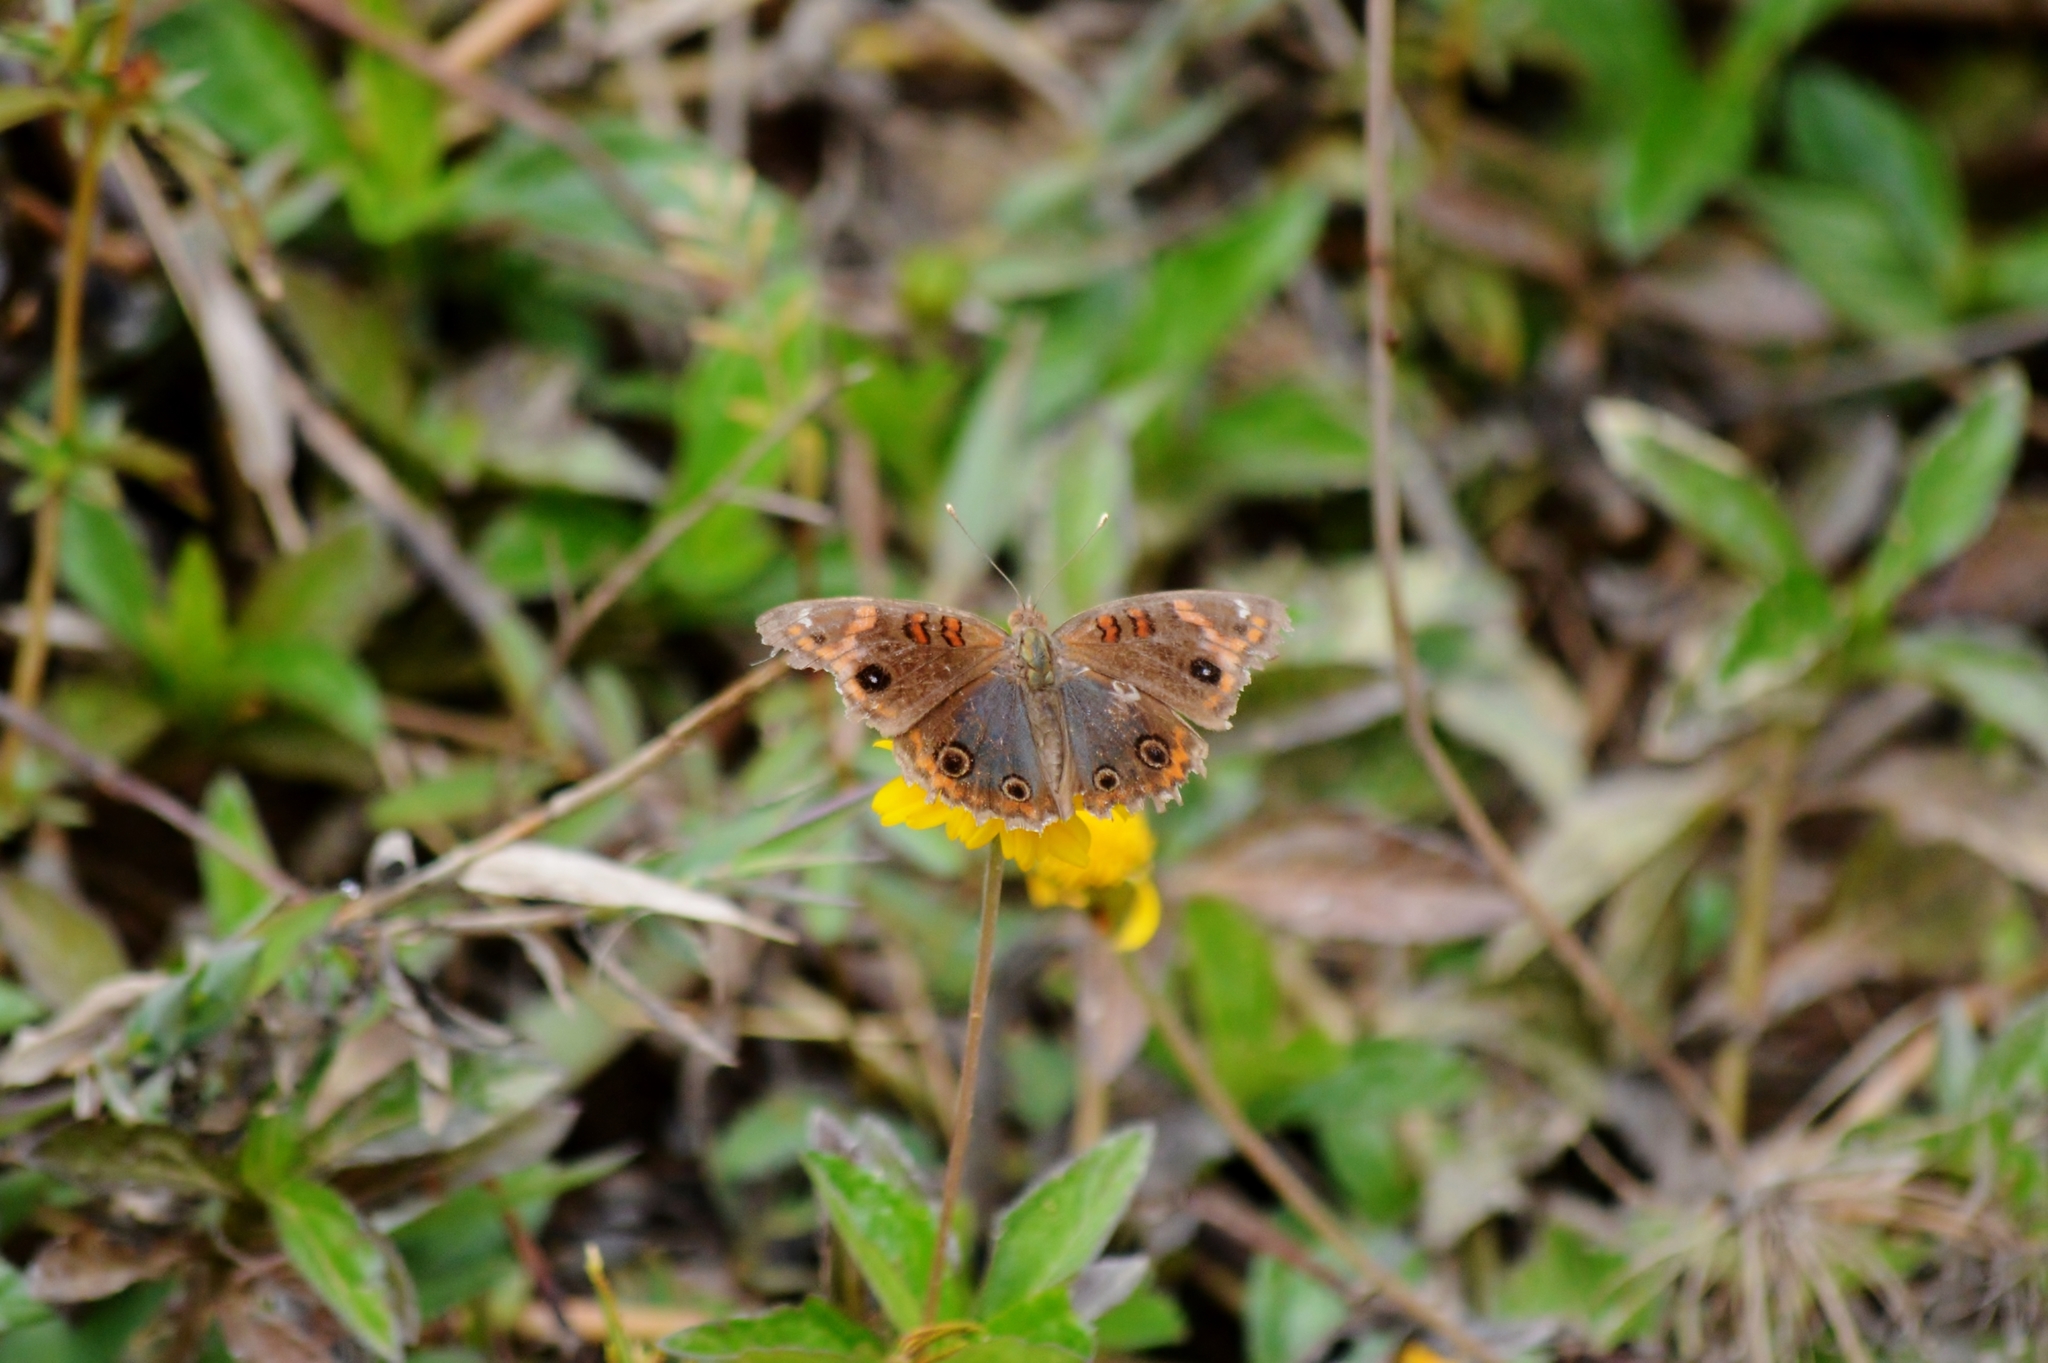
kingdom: Animalia
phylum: Arthropoda
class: Insecta
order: Lepidoptera
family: Nymphalidae
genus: Junonia
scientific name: Junonia evarete
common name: Black mangrove buckeye
